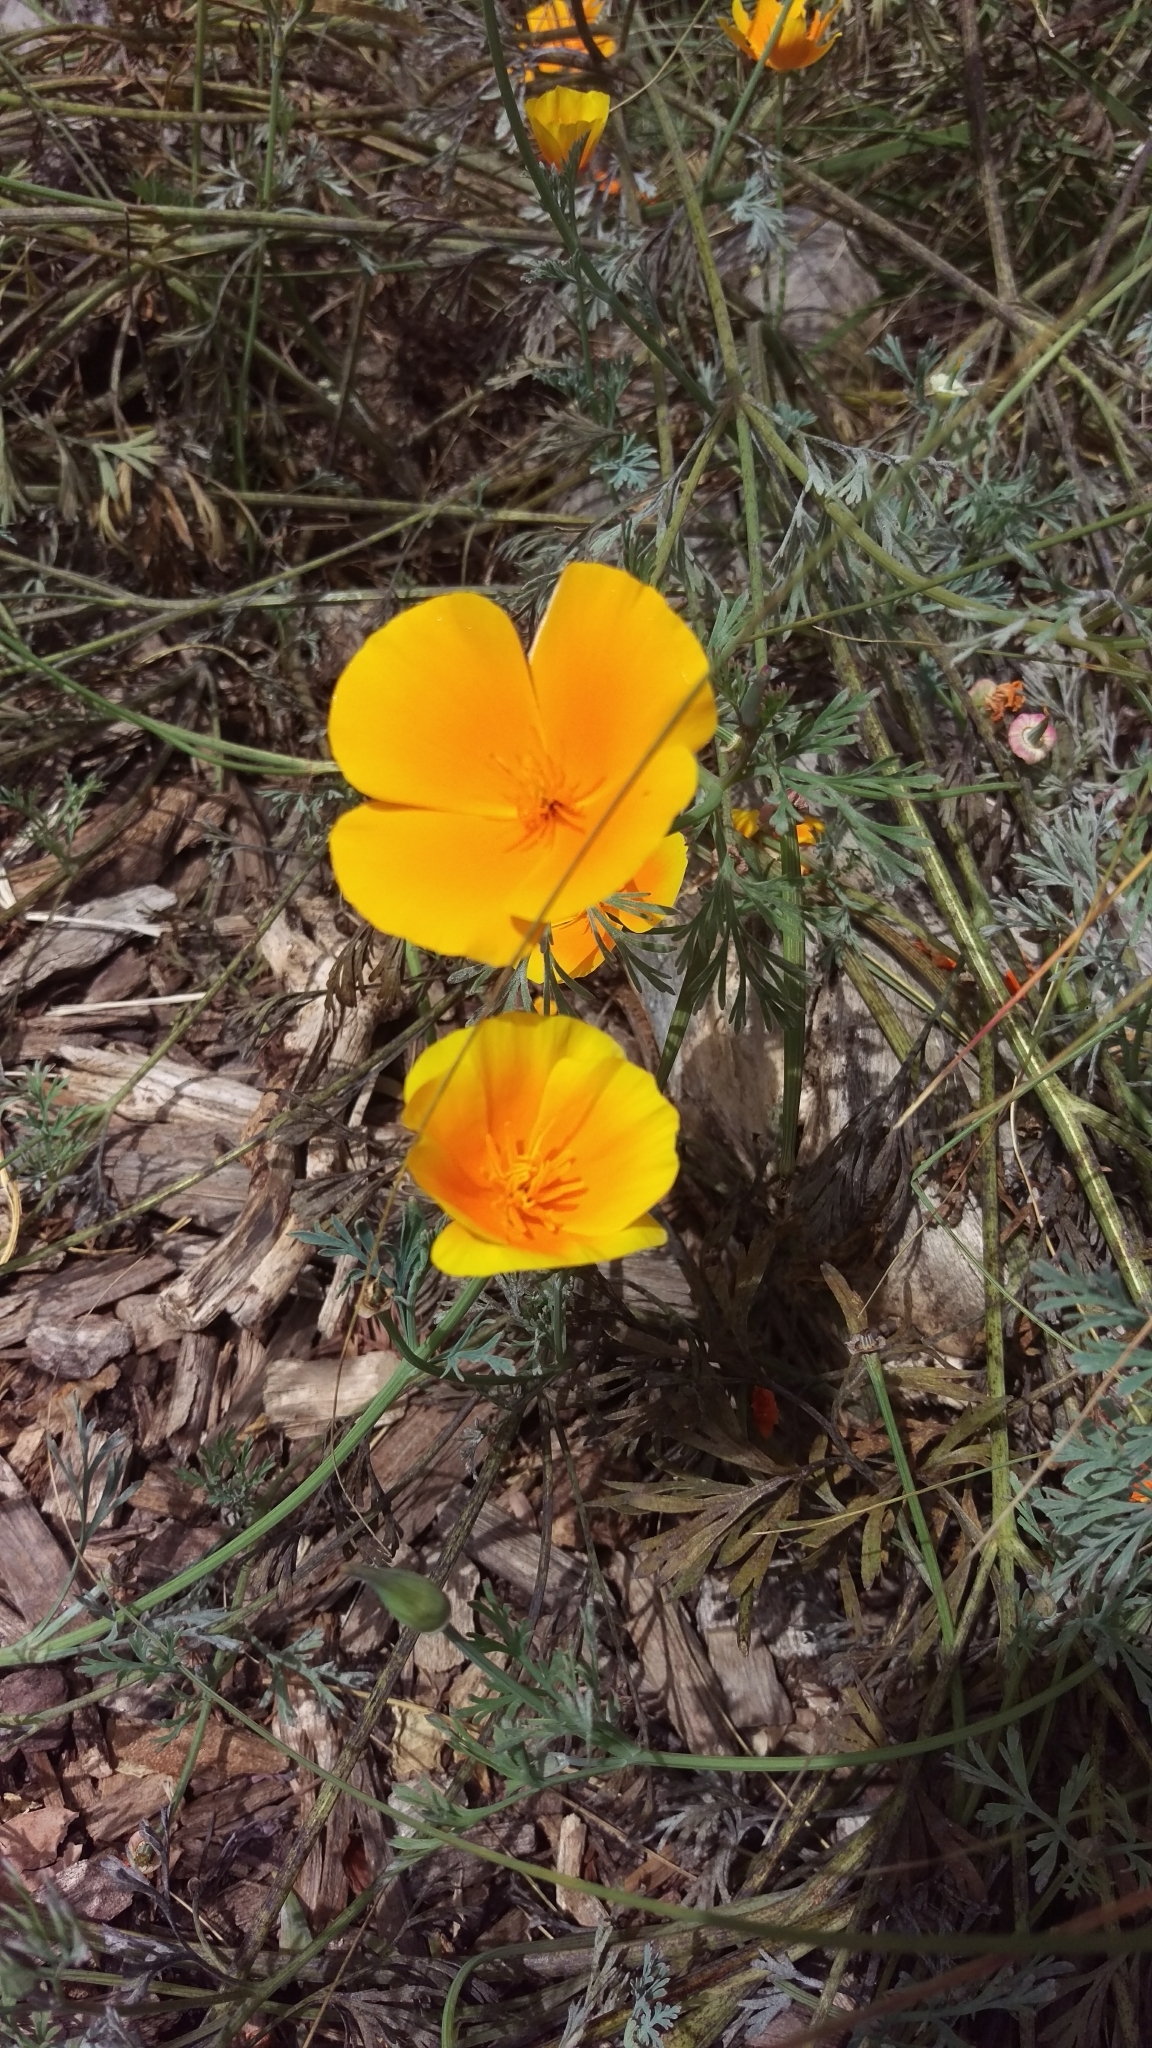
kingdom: Plantae
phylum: Tracheophyta
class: Magnoliopsida
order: Ranunculales
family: Papaveraceae
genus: Eschscholzia
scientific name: Eschscholzia californica
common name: California poppy
